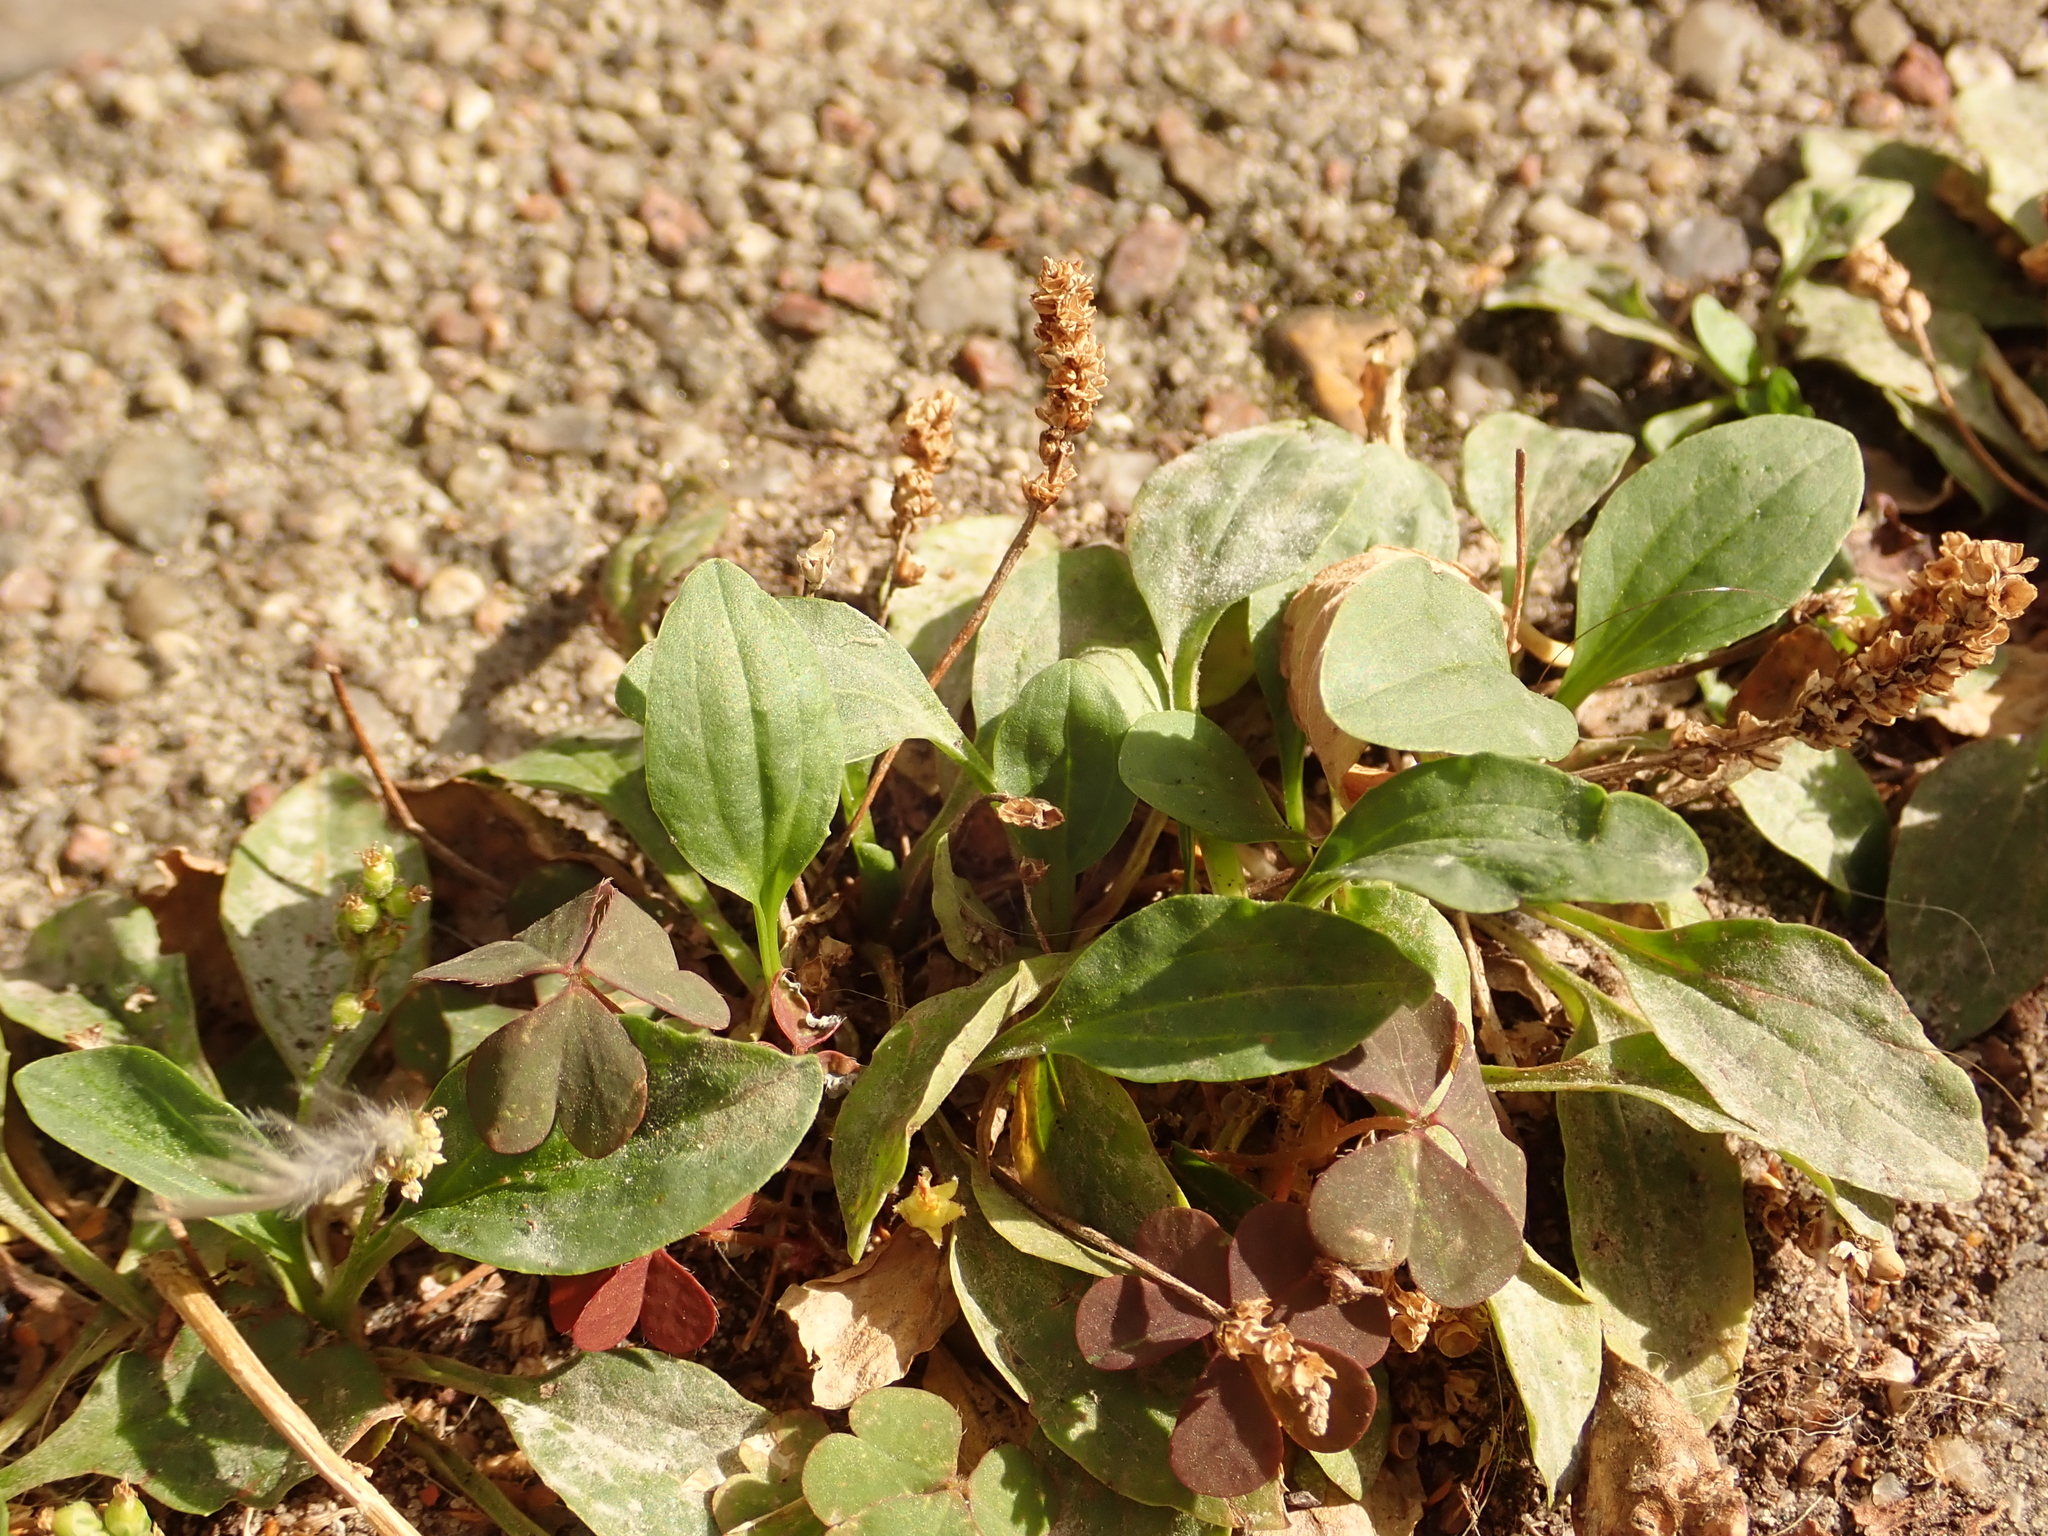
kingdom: Plantae
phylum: Tracheophyta
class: Magnoliopsida
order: Lamiales
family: Plantaginaceae
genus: Plantago
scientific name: Plantago major
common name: Common plantain
